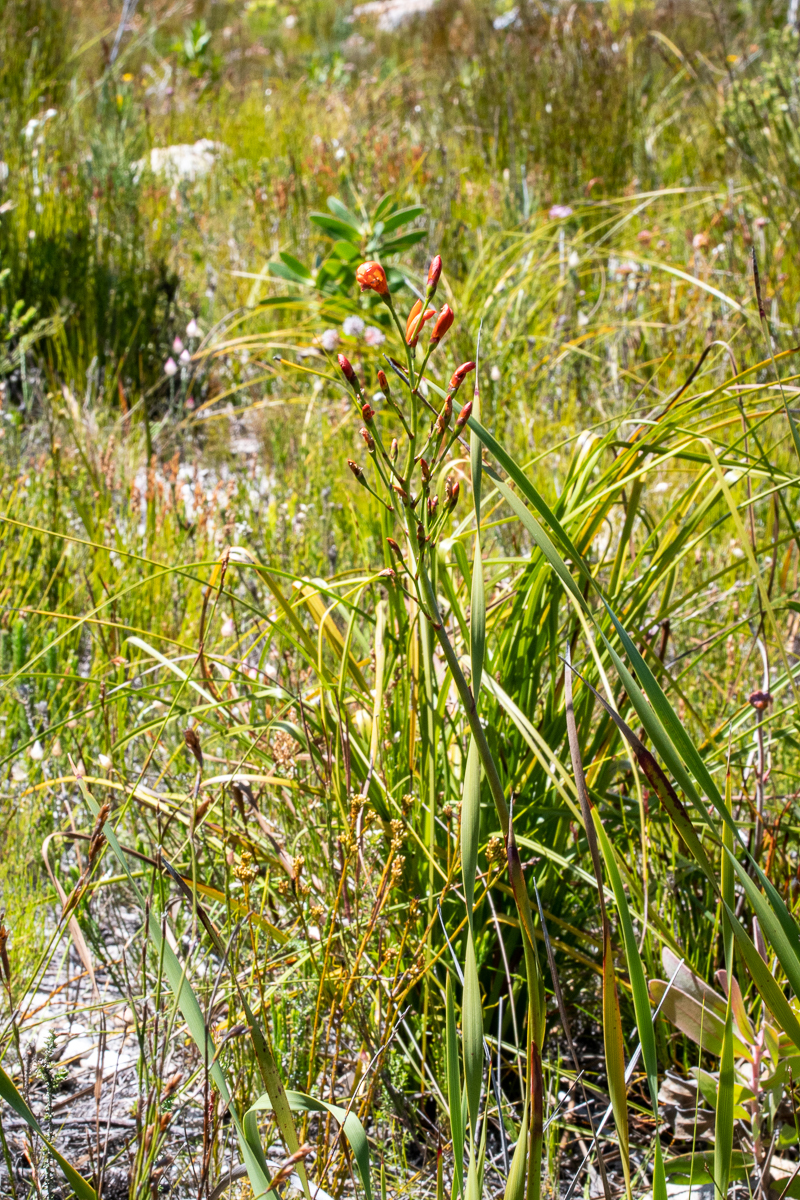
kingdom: Plantae
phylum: Tracheophyta
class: Liliopsida
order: Asparagales
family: Iridaceae
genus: Pillansia
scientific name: Pillansia templemannii
